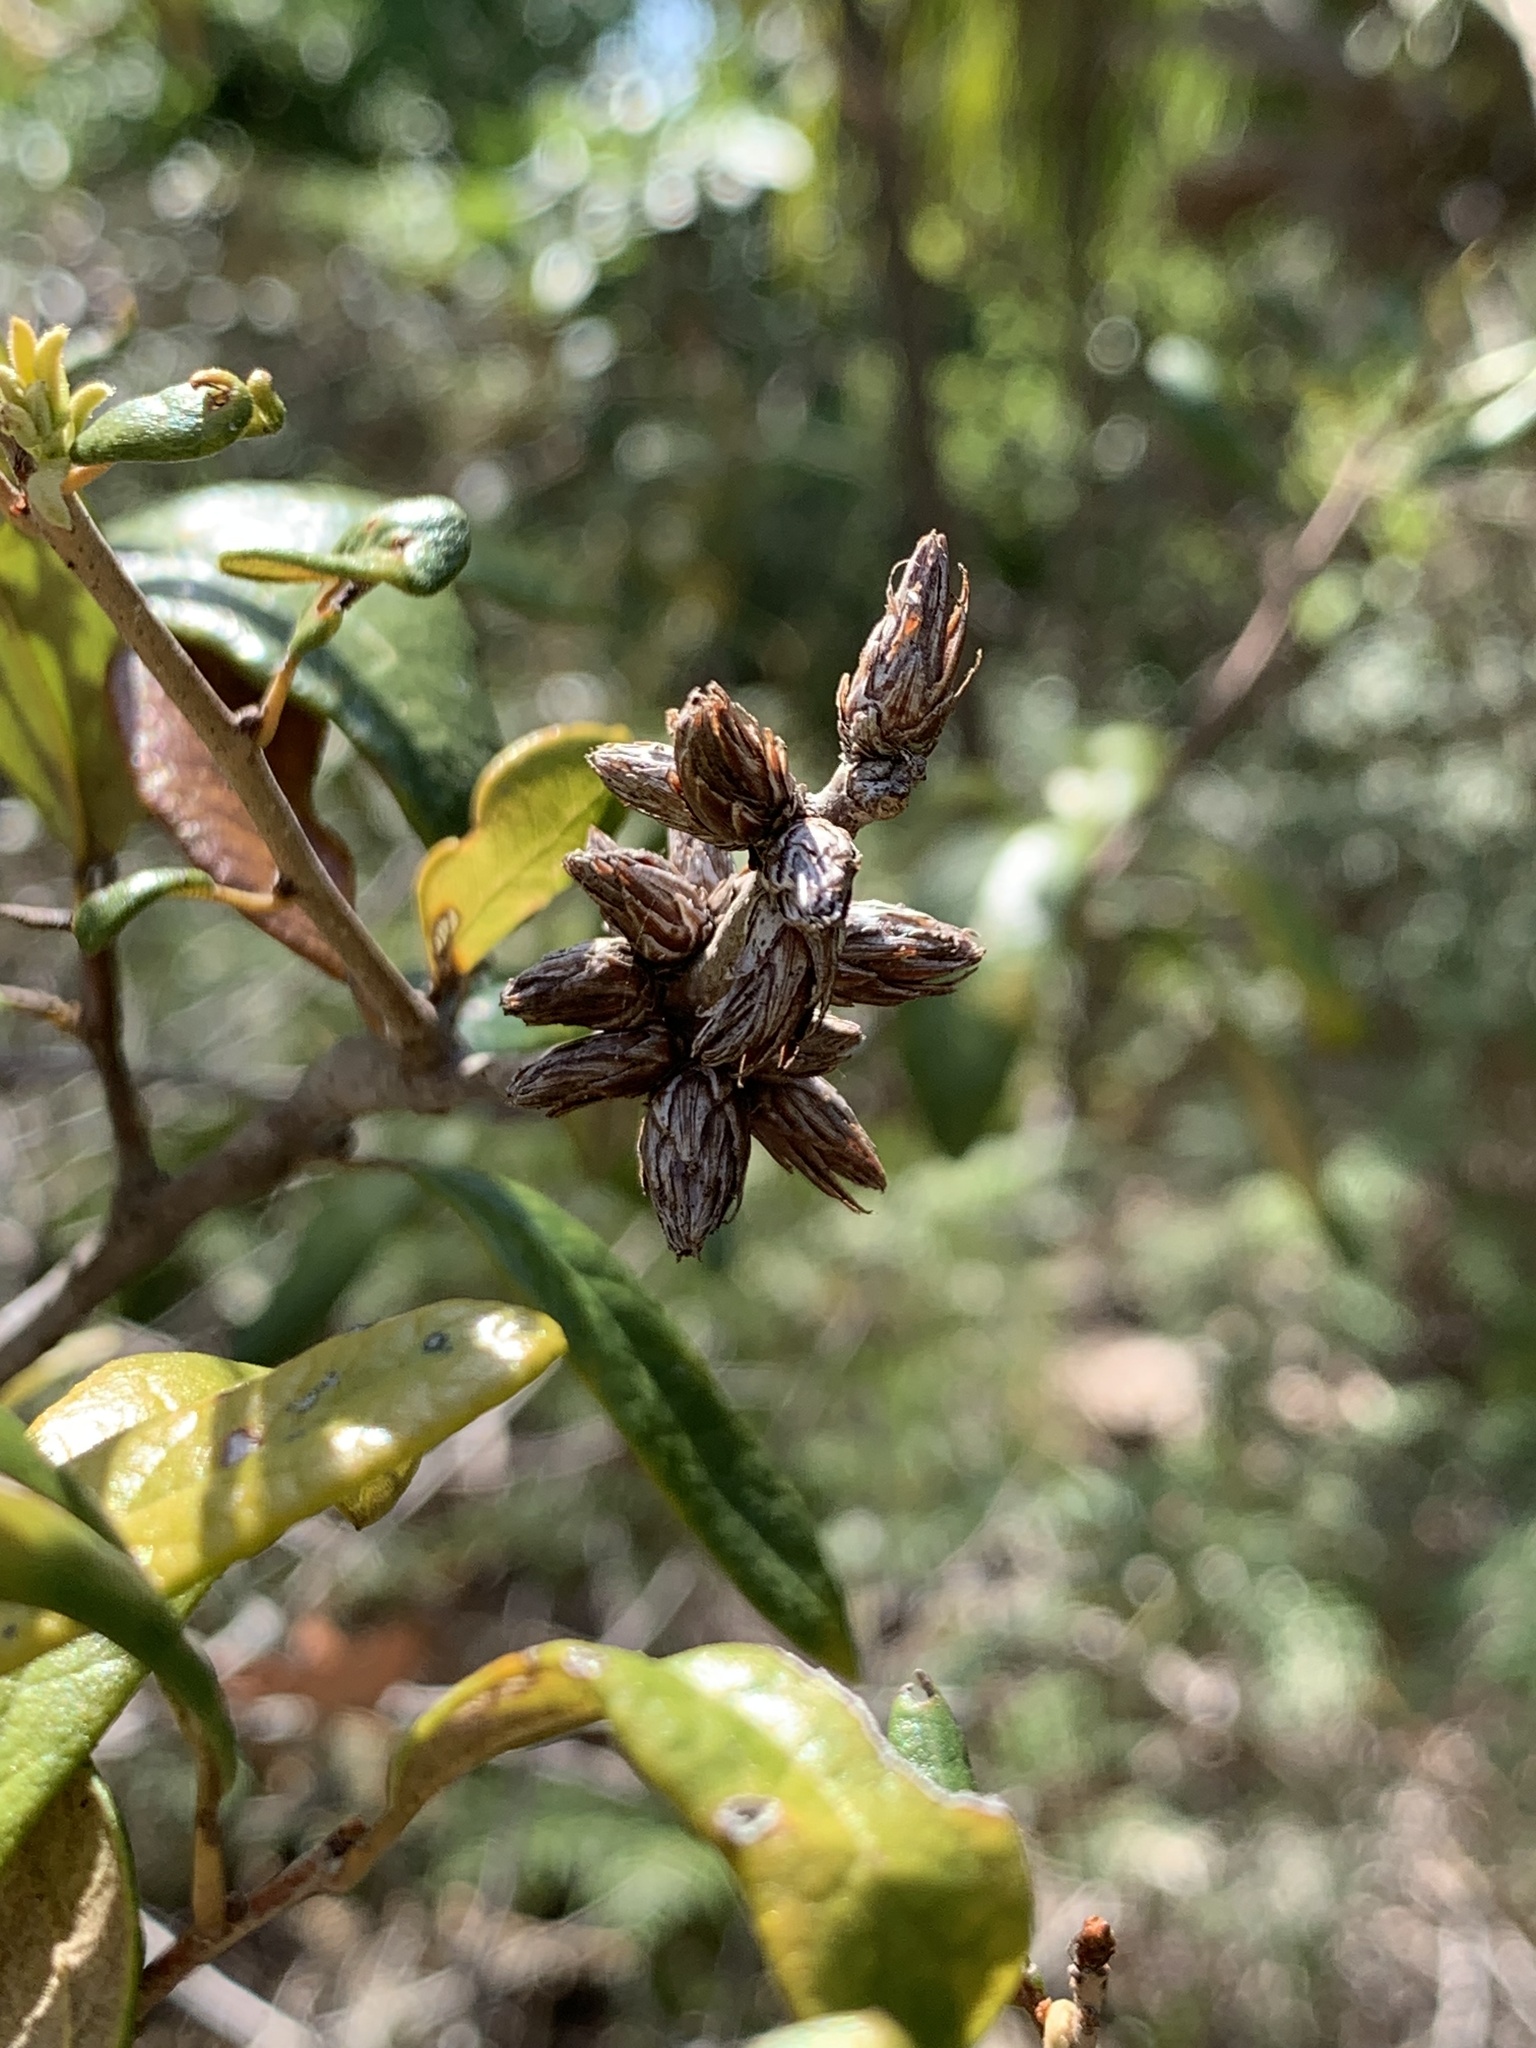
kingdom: Animalia
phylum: Arthropoda
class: Insecta
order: Diptera
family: Cecidomyiidae
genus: Arnoldiola
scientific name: Arnoldiola atra
